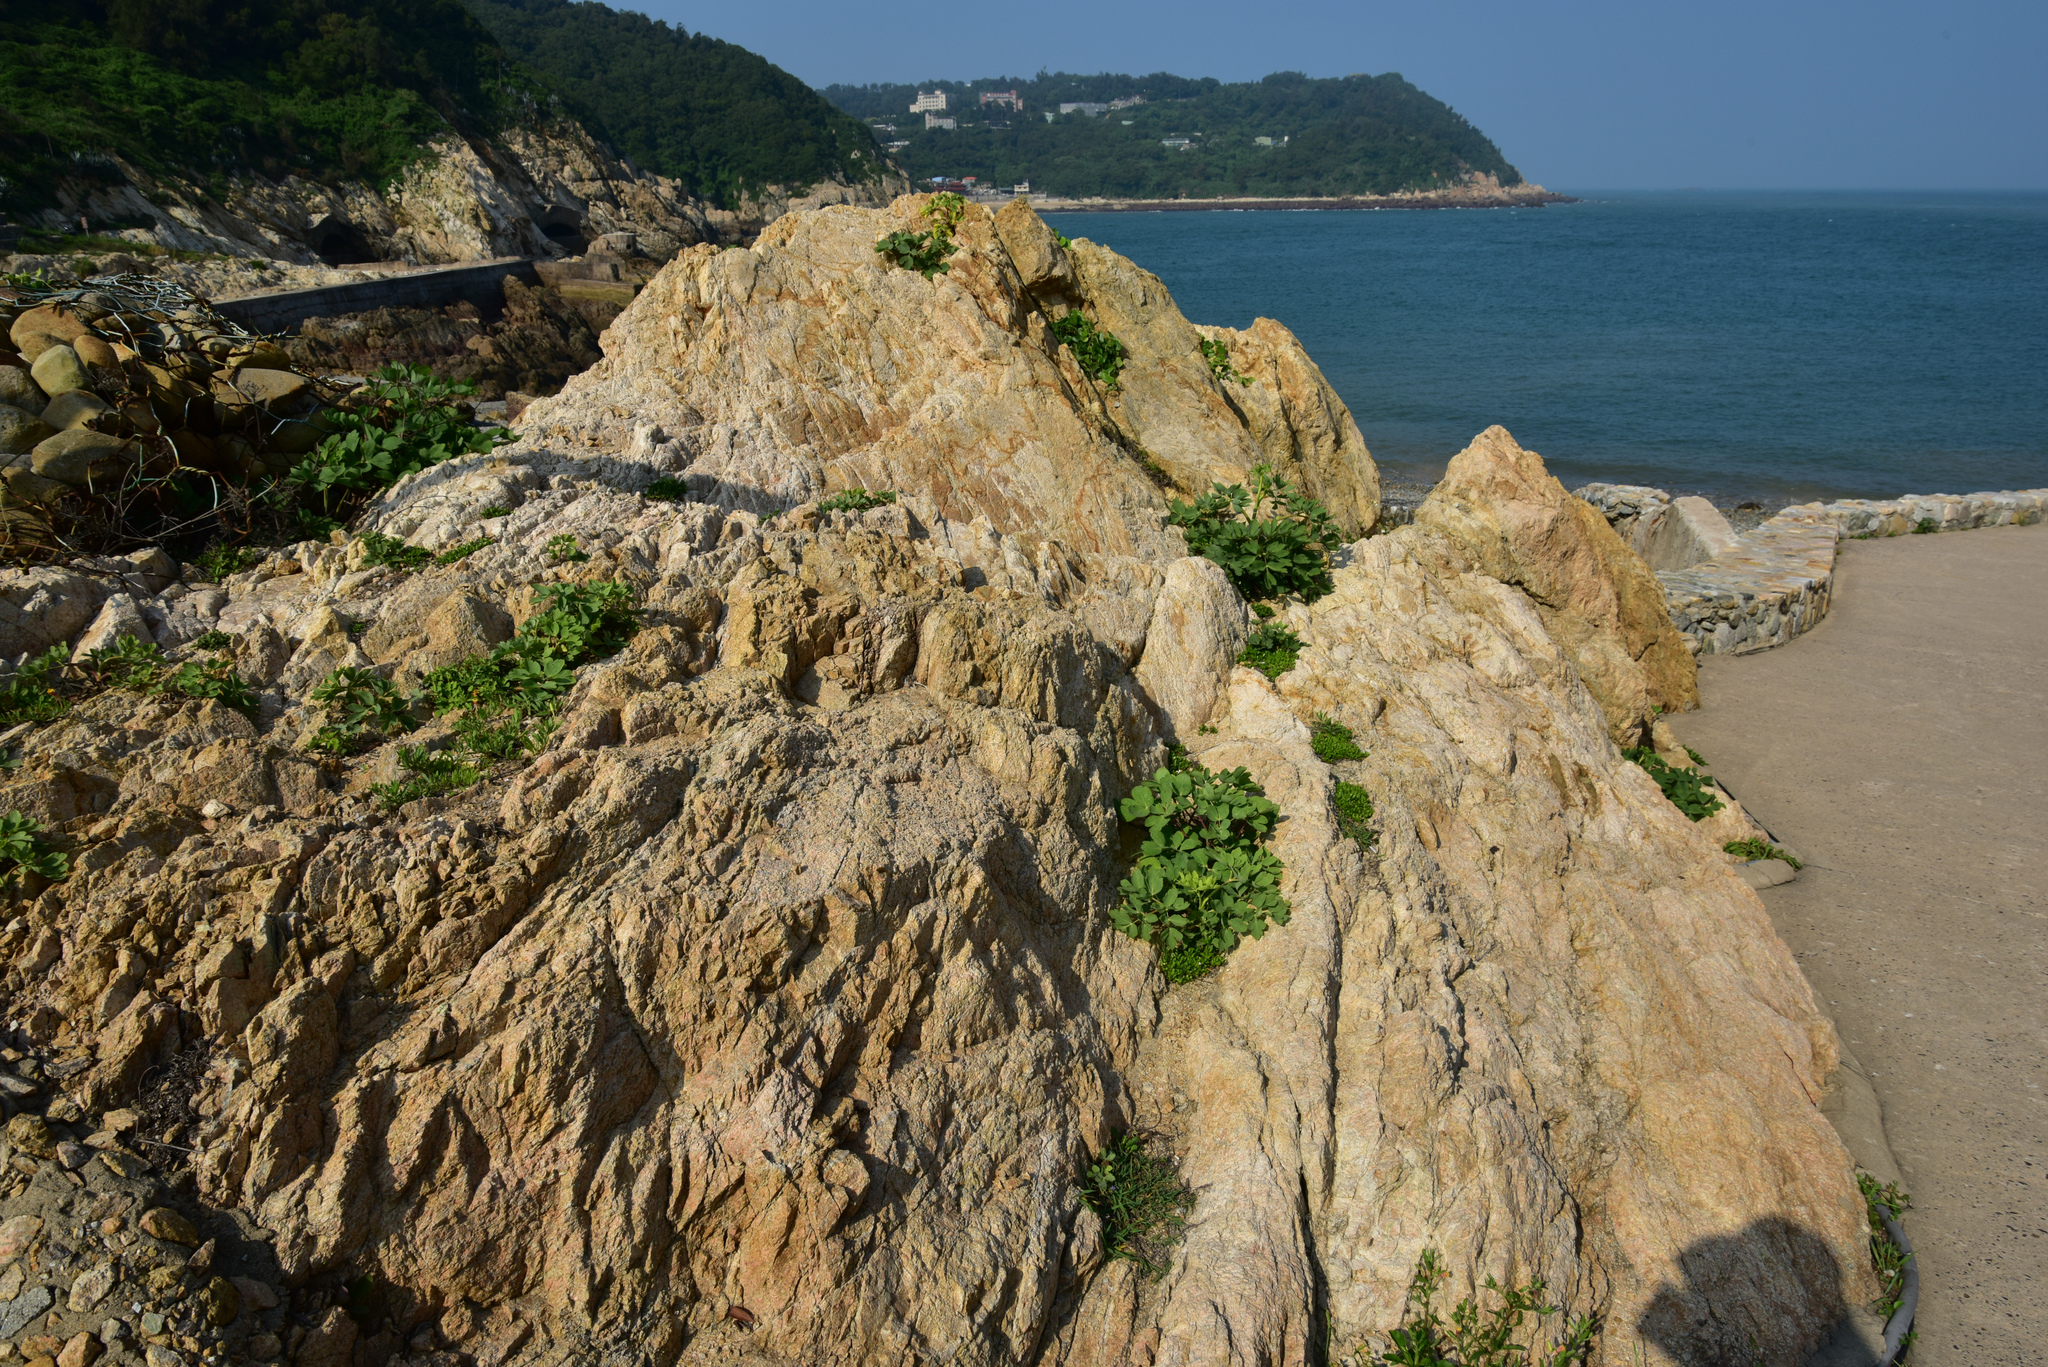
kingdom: Plantae
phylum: Tracheophyta
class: Magnoliopsida
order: Apiales
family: Apiaceae
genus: Peucedanum
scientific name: Peucedanum japonicum
